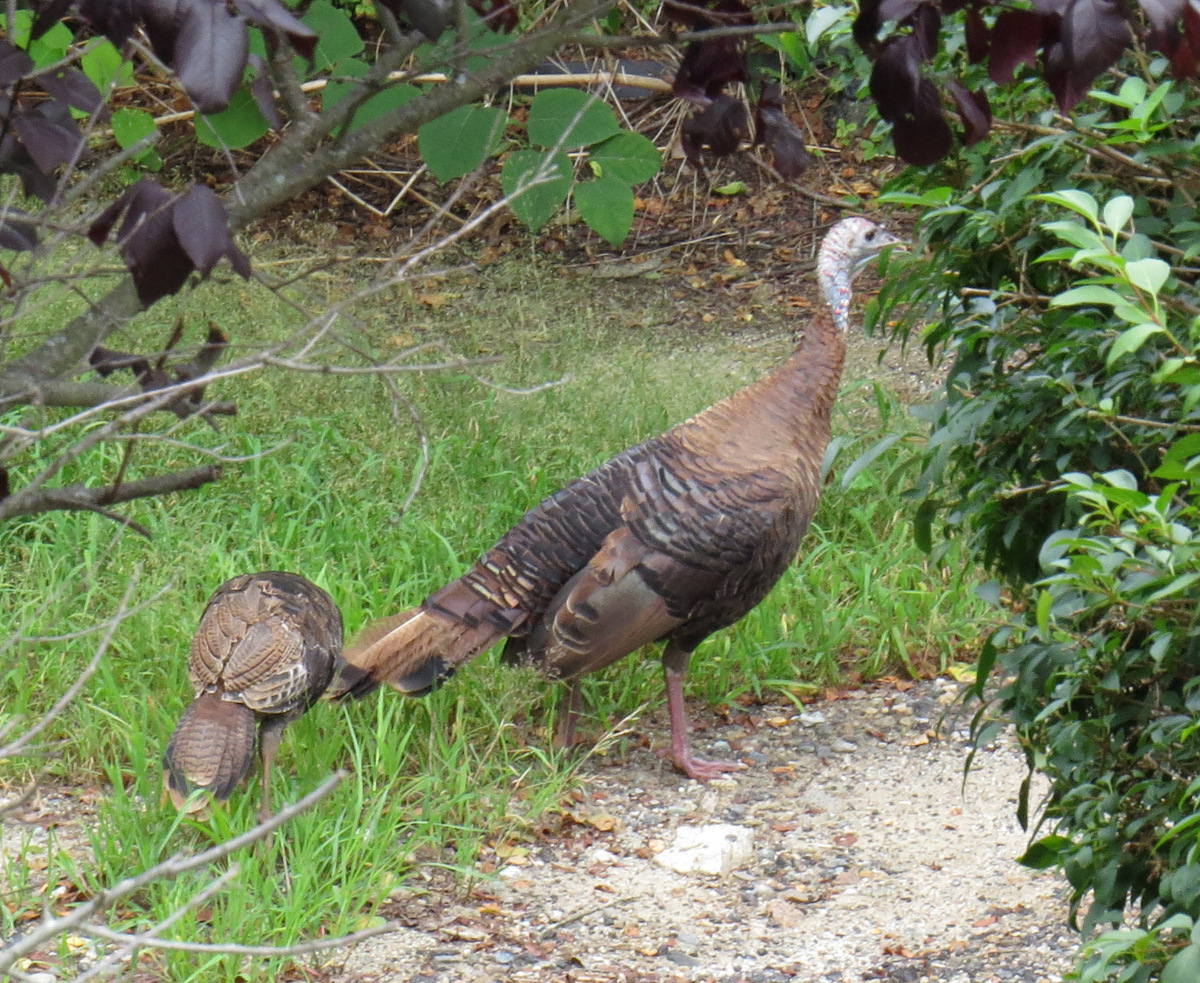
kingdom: Animalia
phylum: Chordata
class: Aves
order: Galliformes
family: Phasianidae
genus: Meleagris
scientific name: Meleagris gallopavo
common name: Wild turkey
